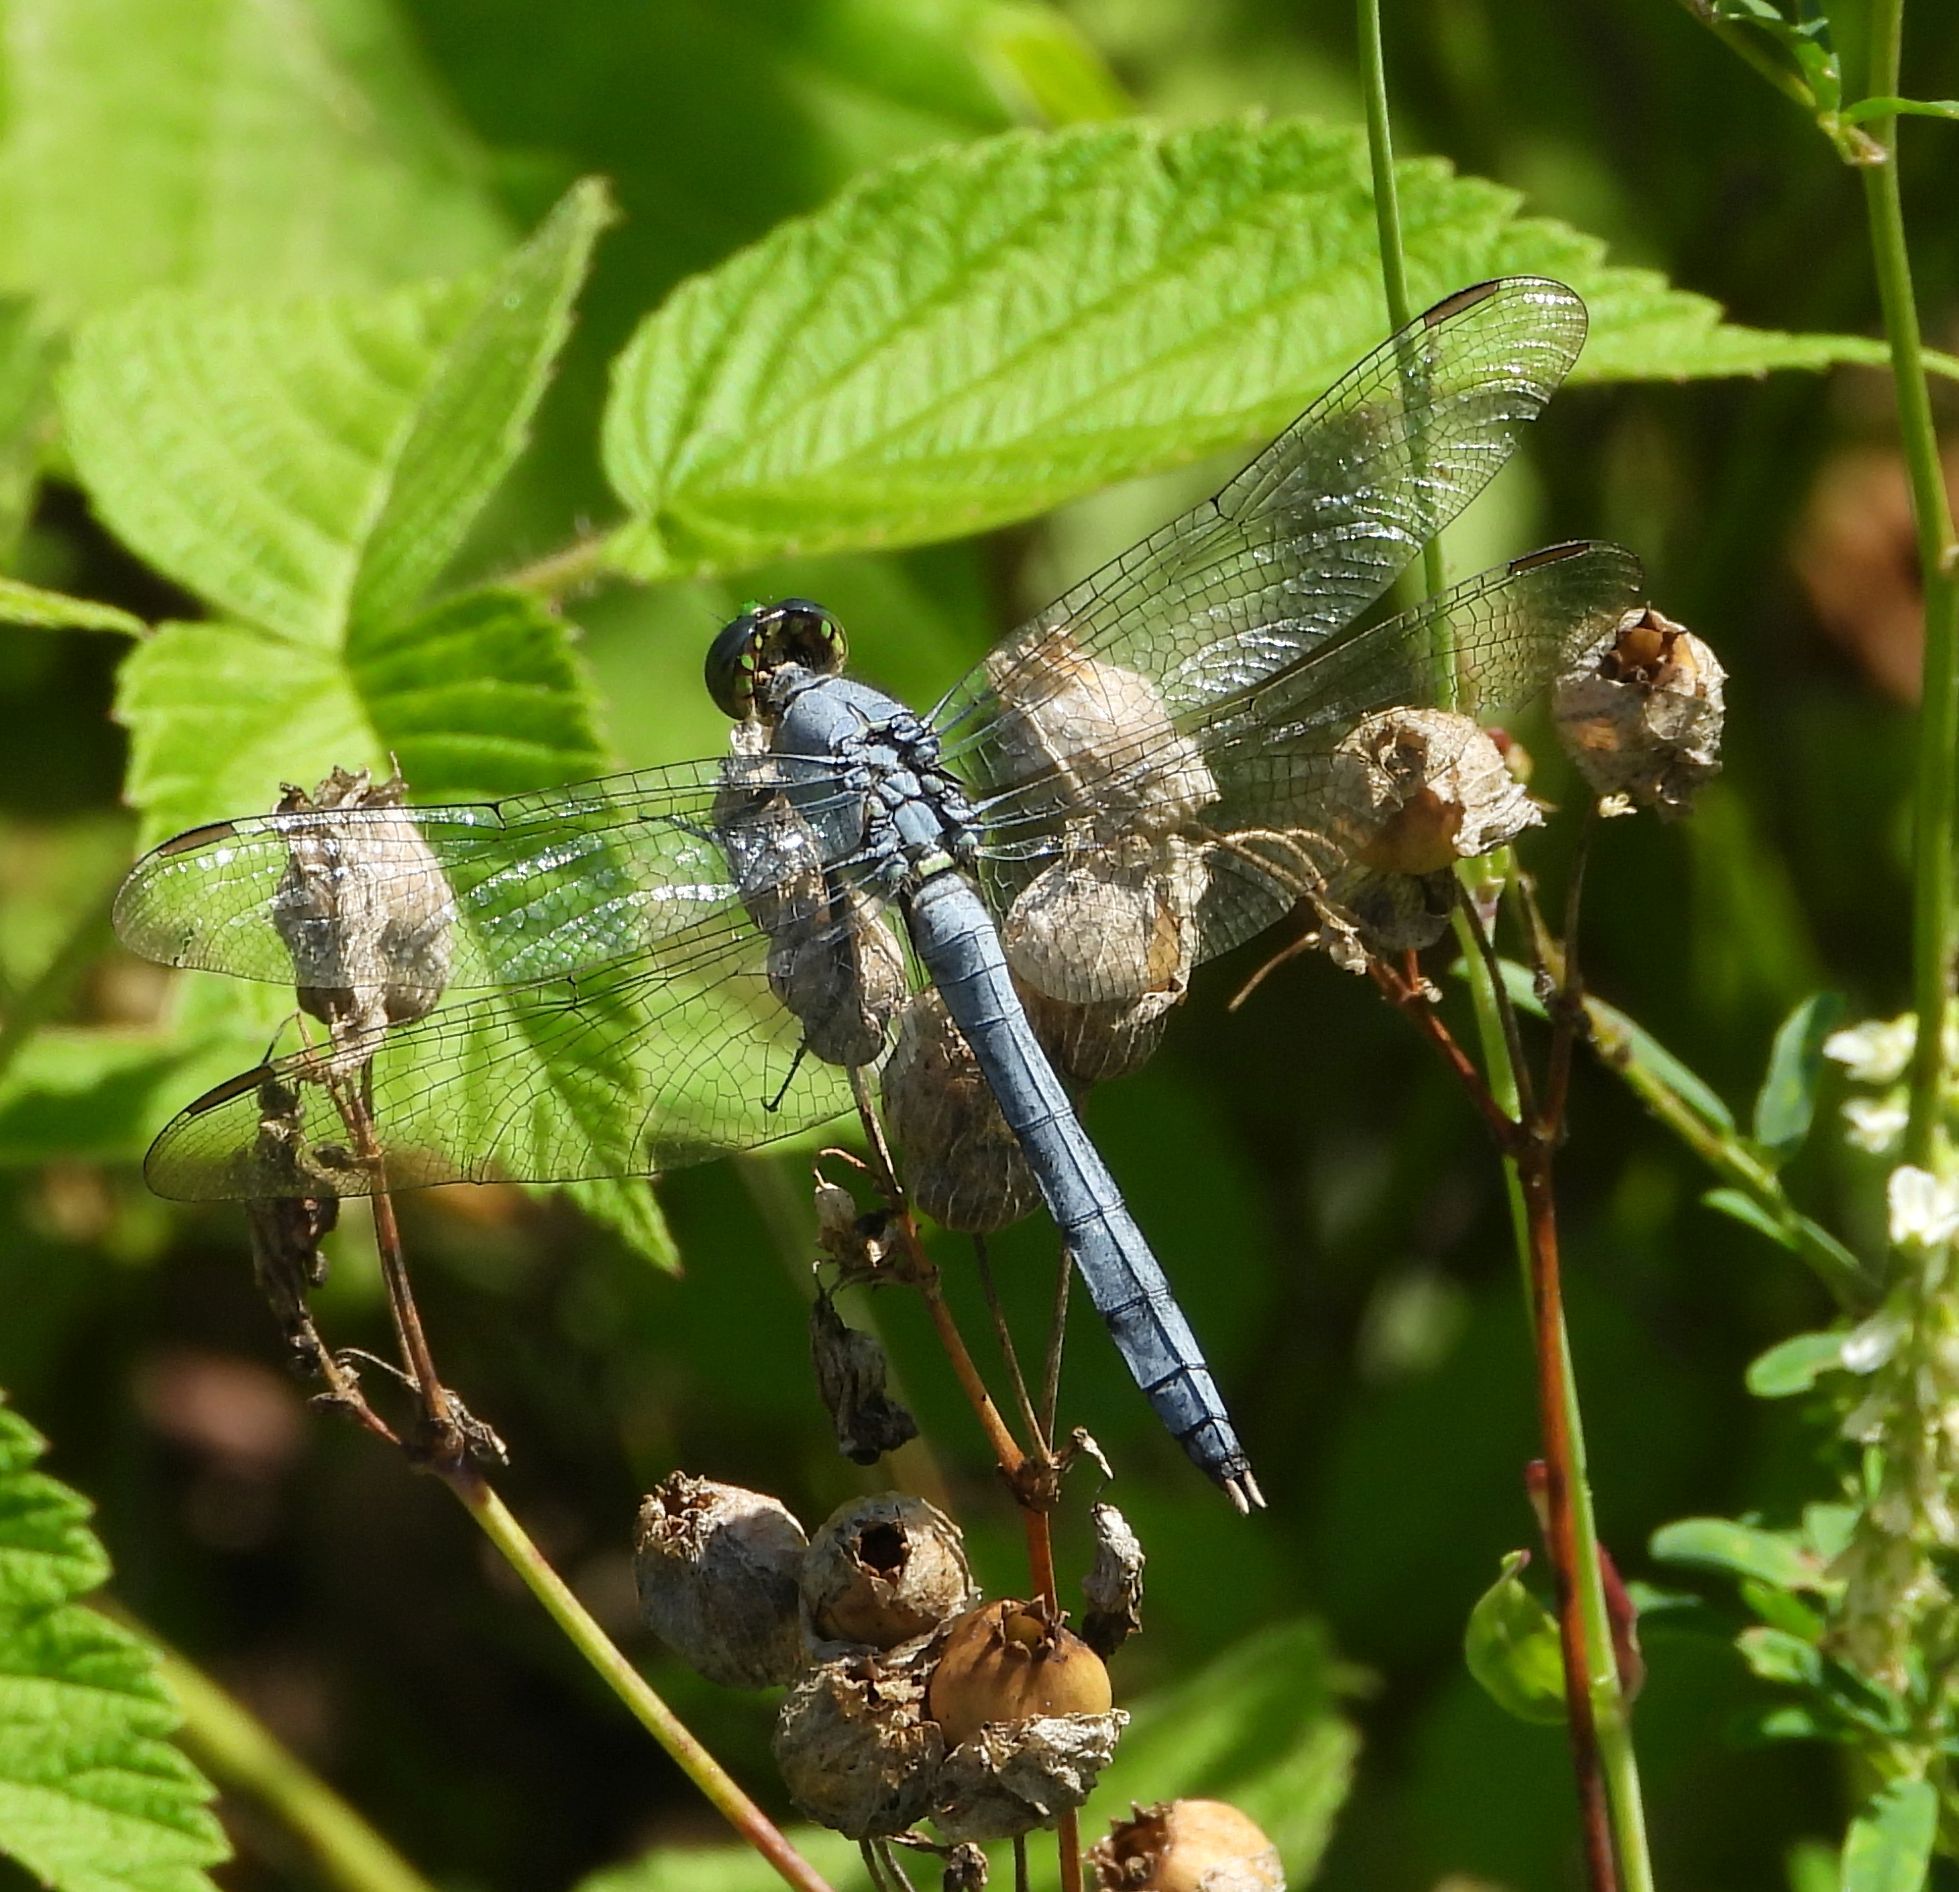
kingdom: Animalia
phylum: Arthropoda
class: Insecta
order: Odonata
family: Libellulidae
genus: Erythemis
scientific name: Erythemis simplicicollis
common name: Eastern pondhawk
